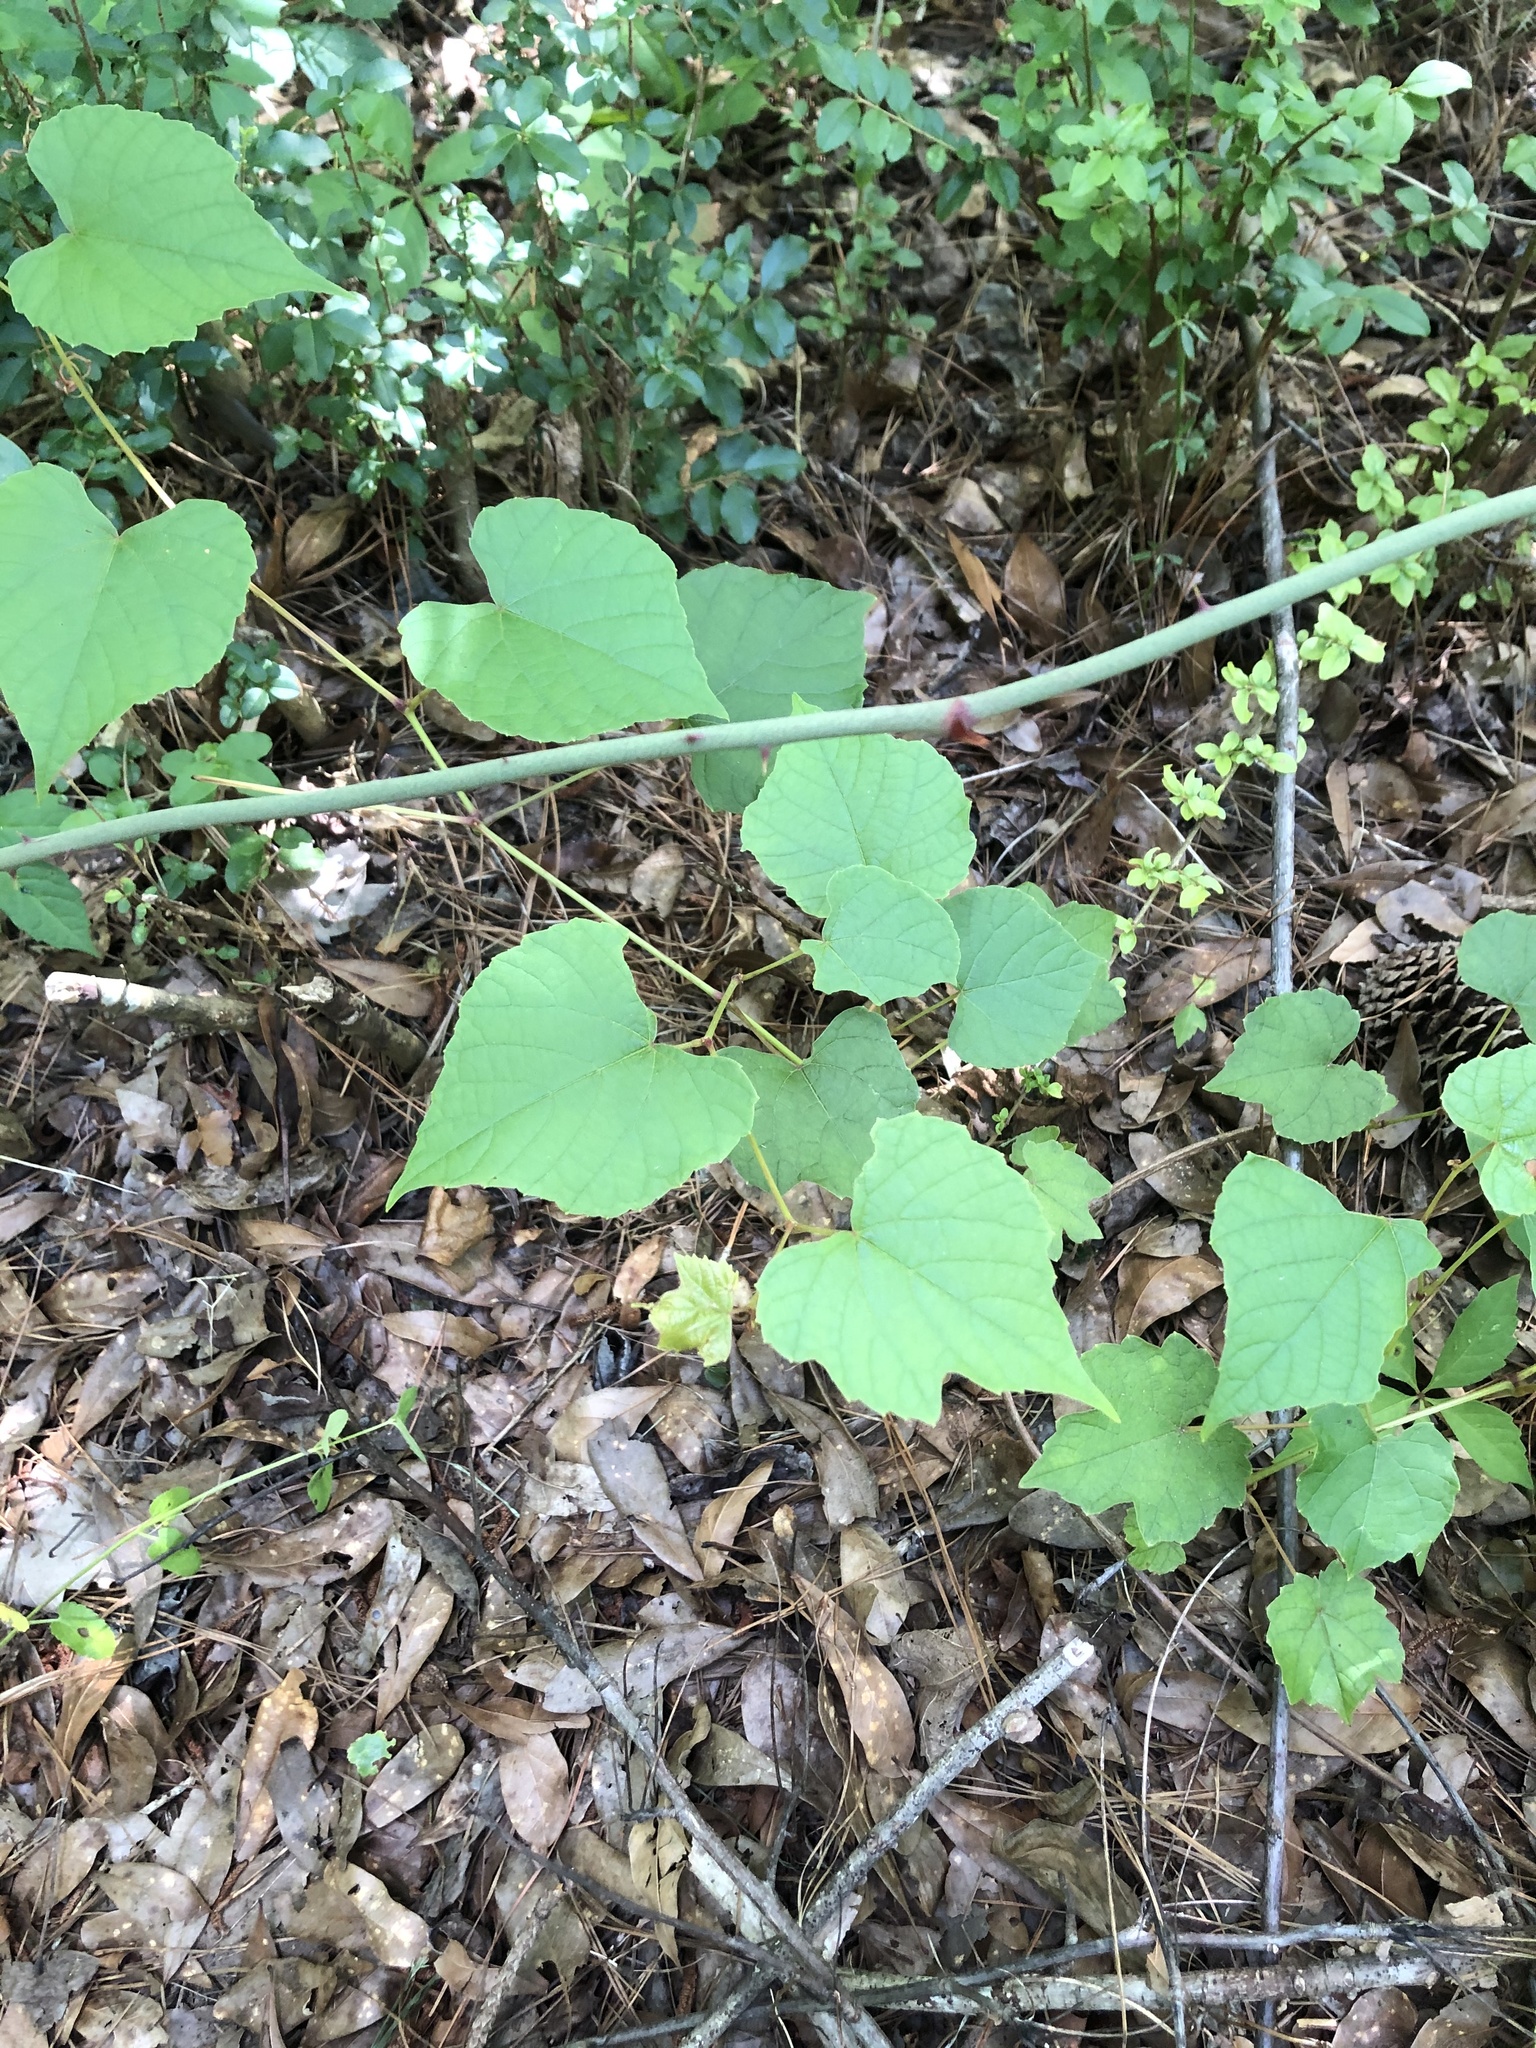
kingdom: Plantae
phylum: Tracheophyta
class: Magnoliopsida
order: Vitales
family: Vitaceae
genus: Vitis
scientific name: Vitis aestivalis
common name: Pigeon grape
